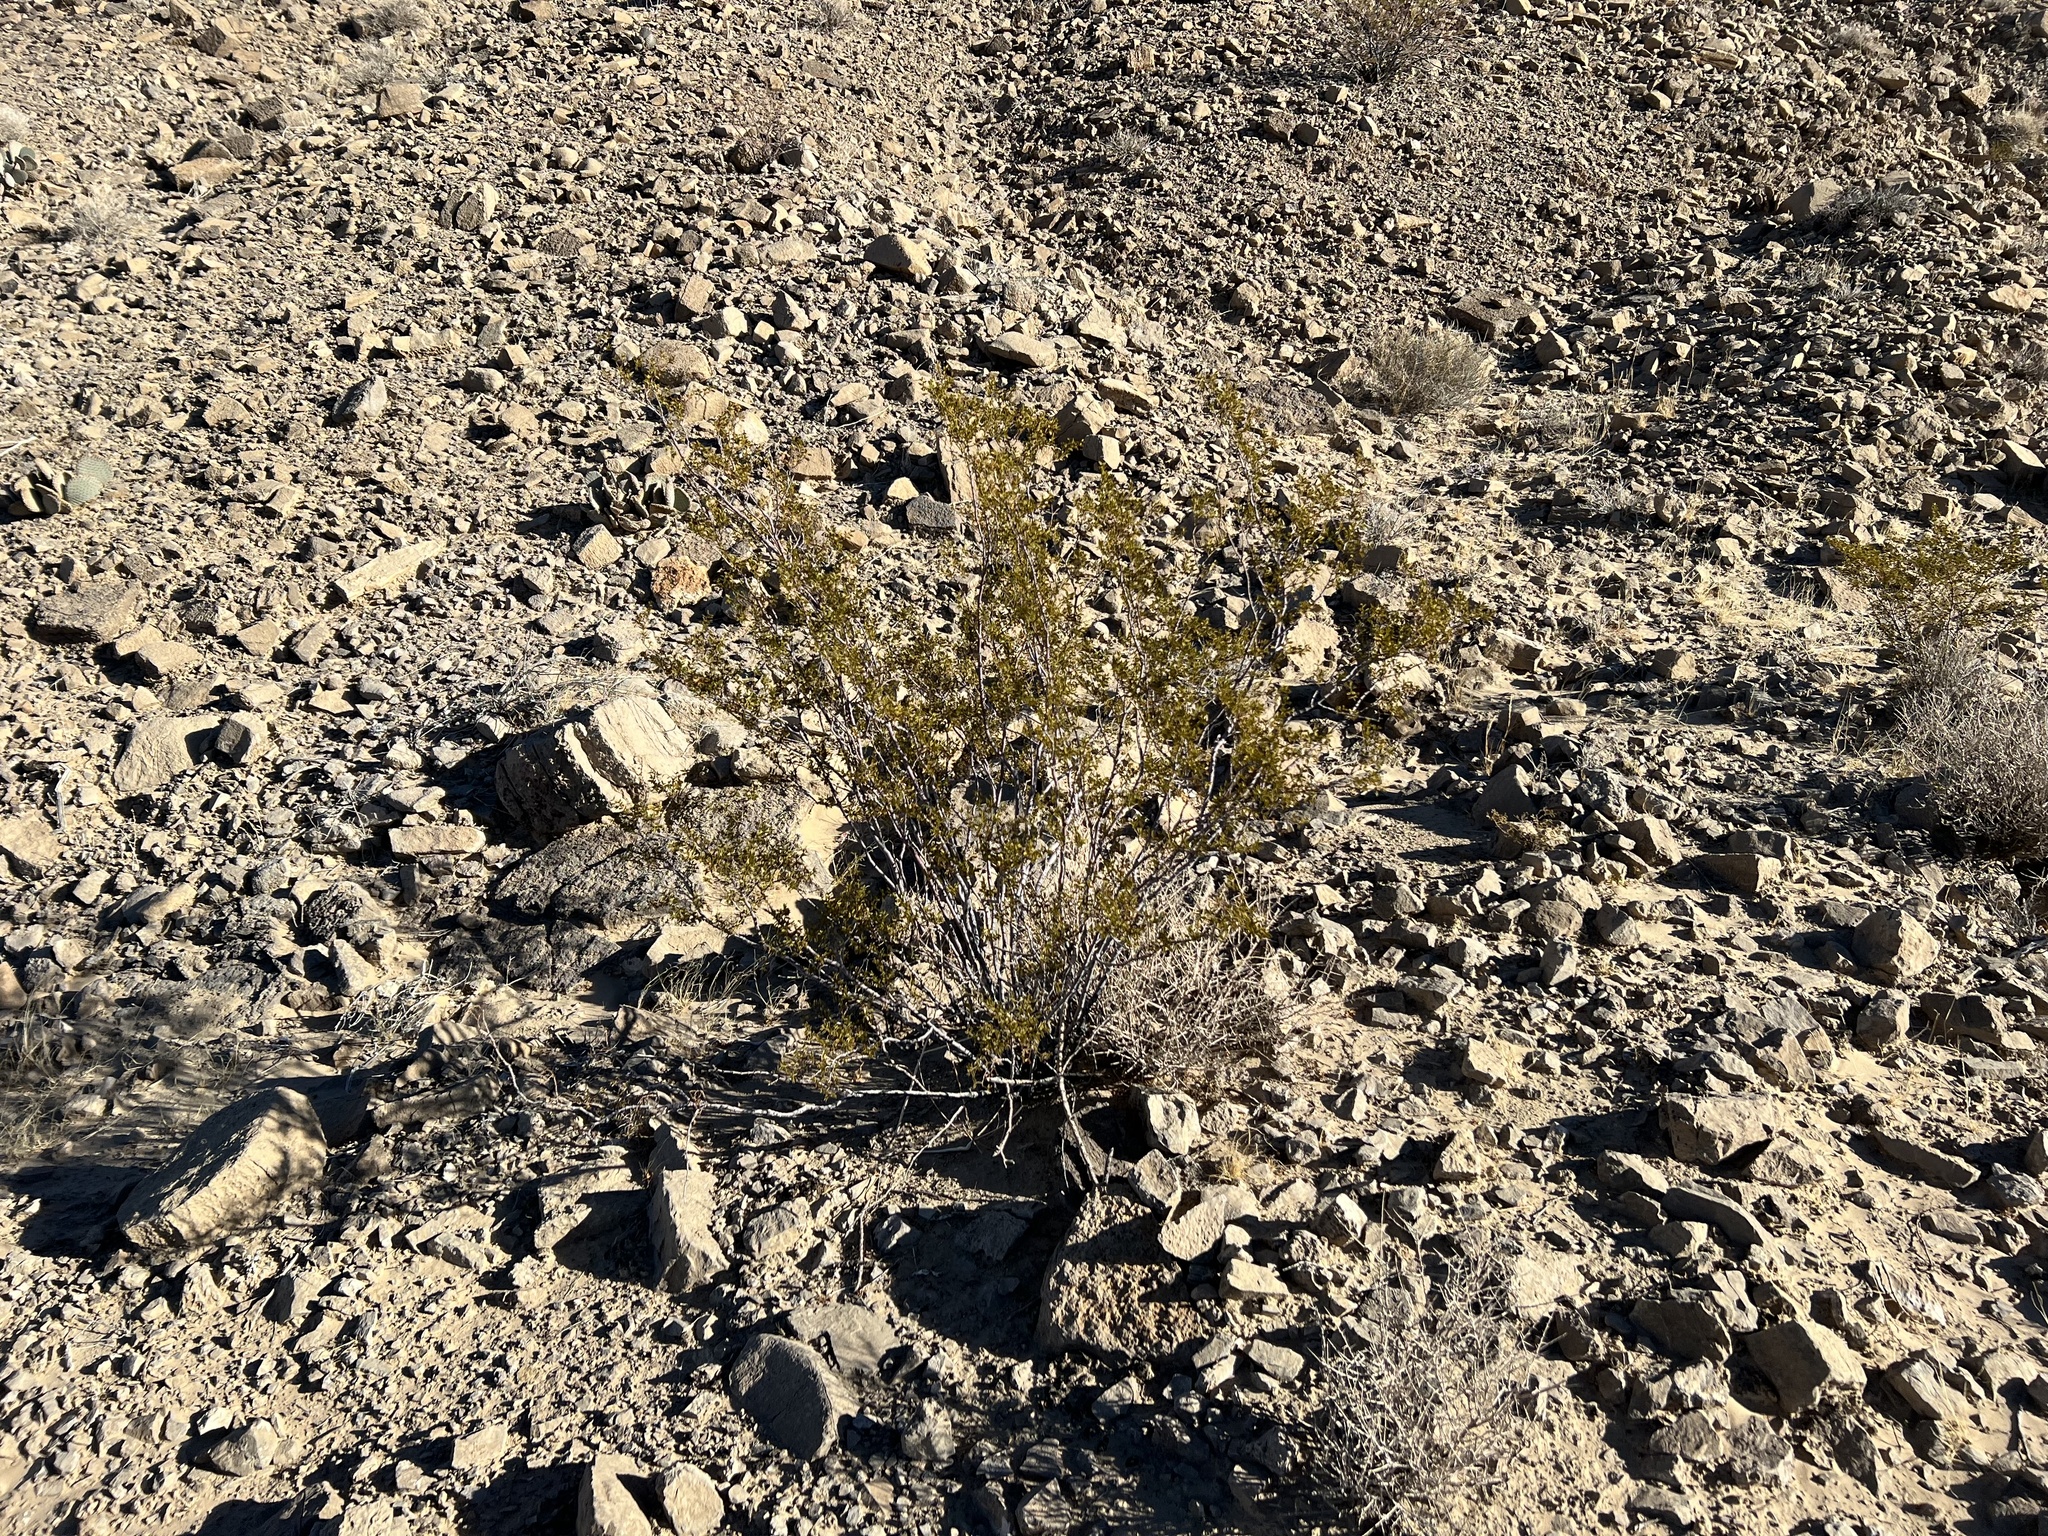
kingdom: Plantae
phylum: Tracheophyta
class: Magnoliopsida
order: Zygophyllales
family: Zygophyllaceae
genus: Larrea
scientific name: Larrea tridentata
